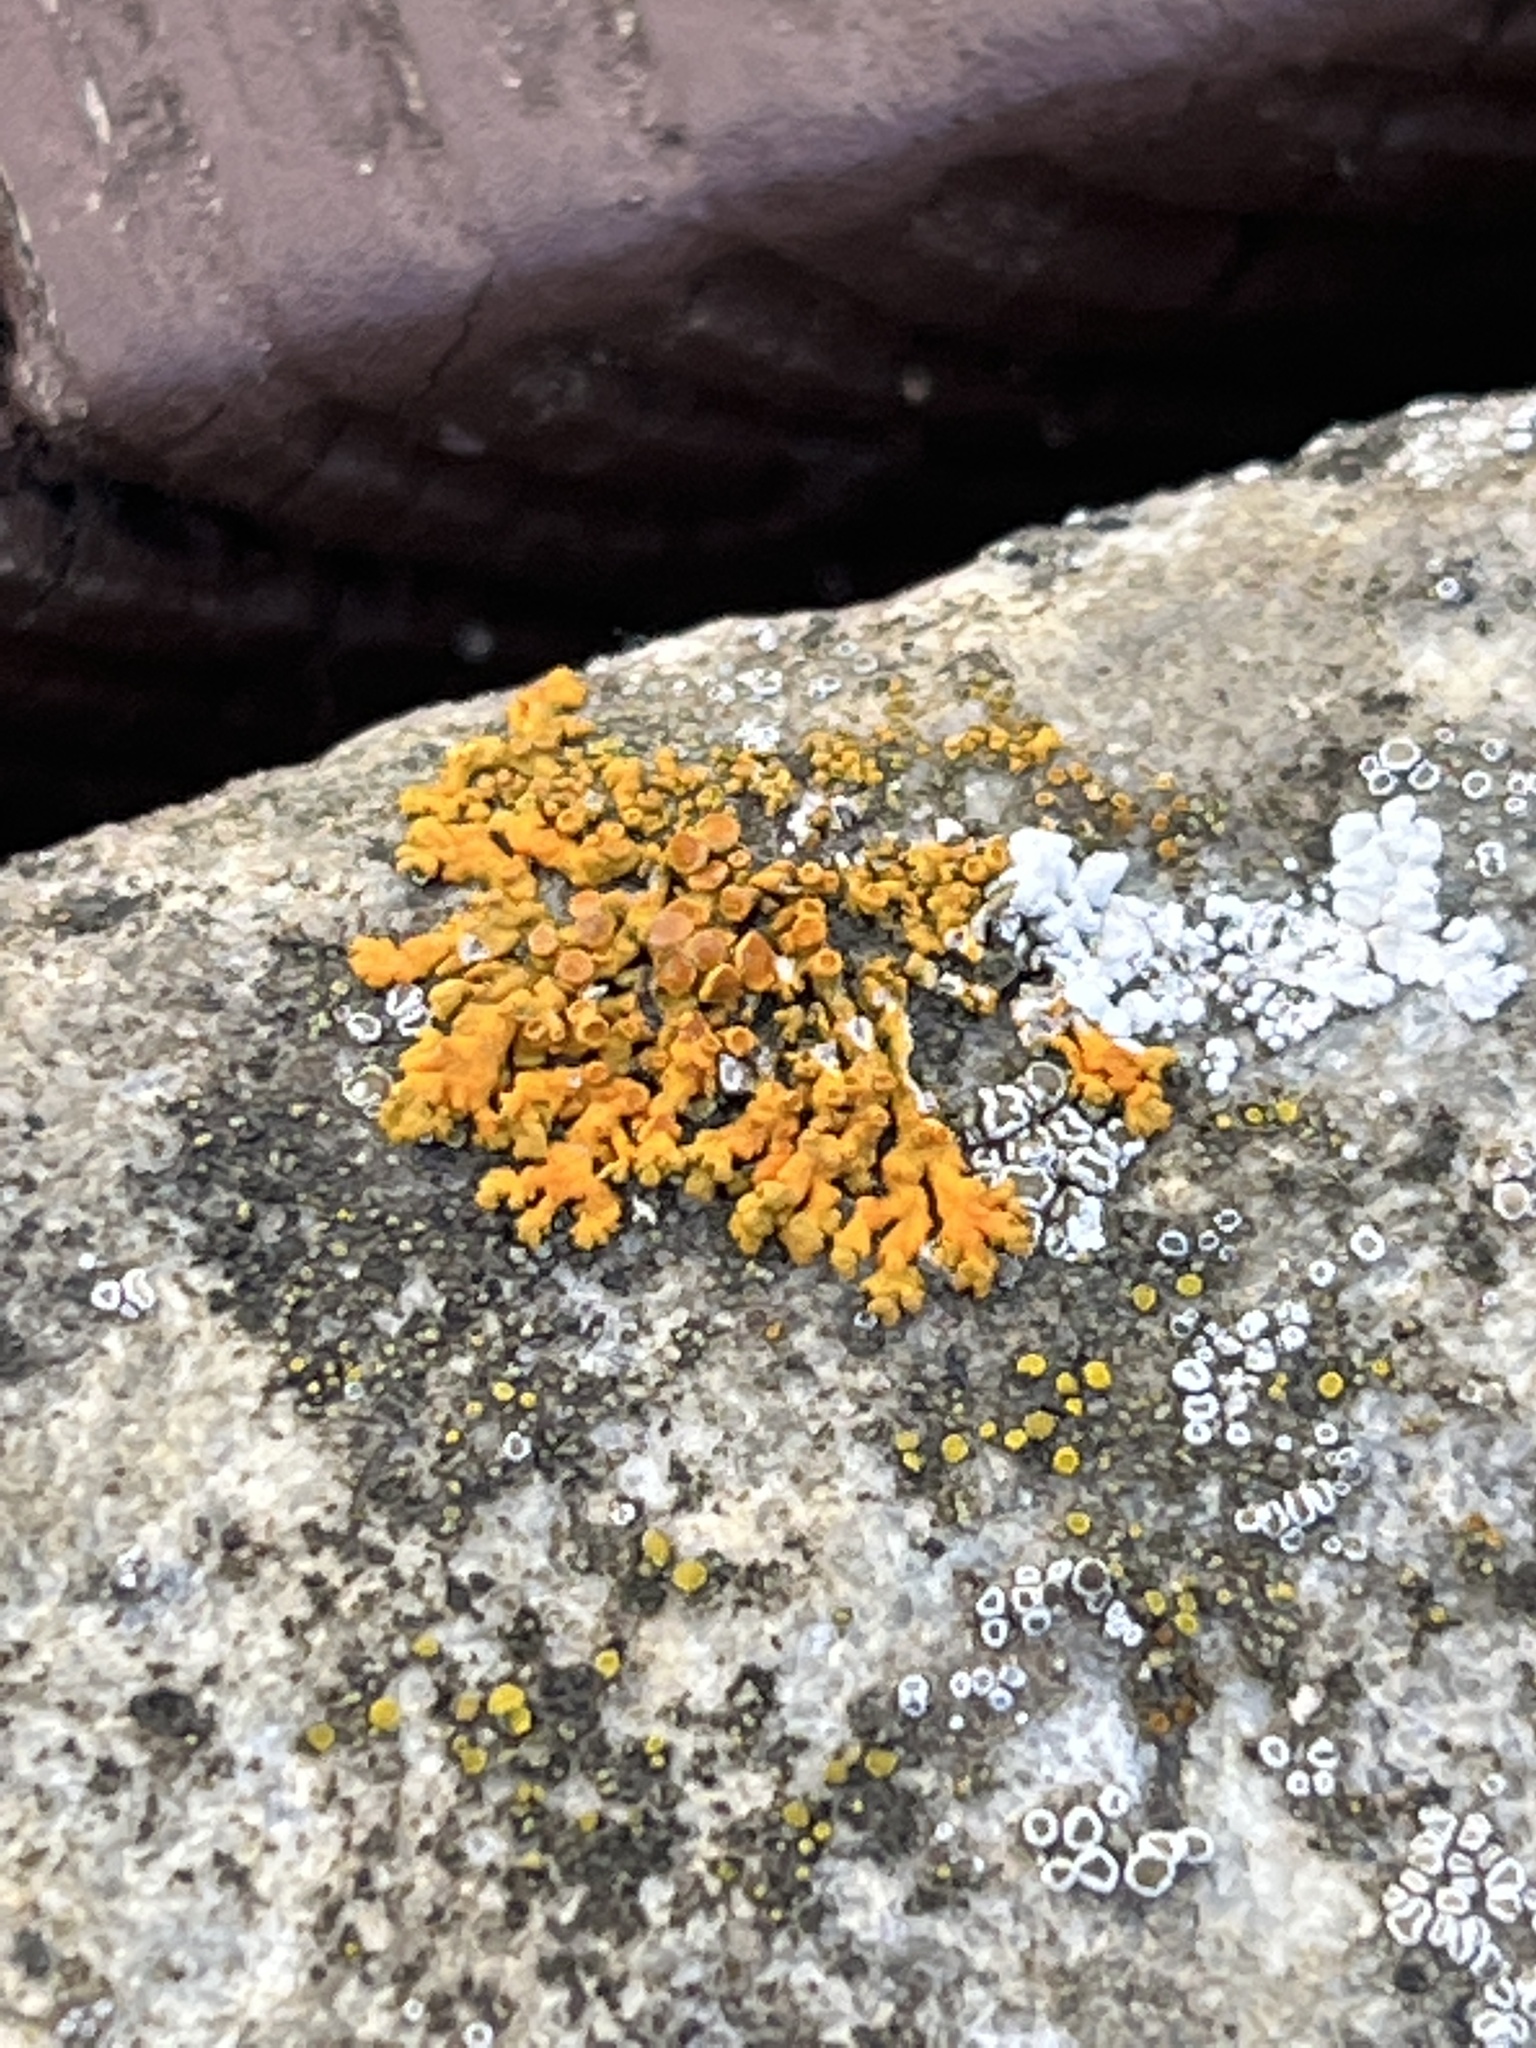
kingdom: Fungi
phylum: Ascomycota
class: Lecanoromycetes
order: Teloschistales
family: Teloschistaceae
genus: Xanthoria
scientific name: Xanthoria elegans
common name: Elegant sunburst lichen
